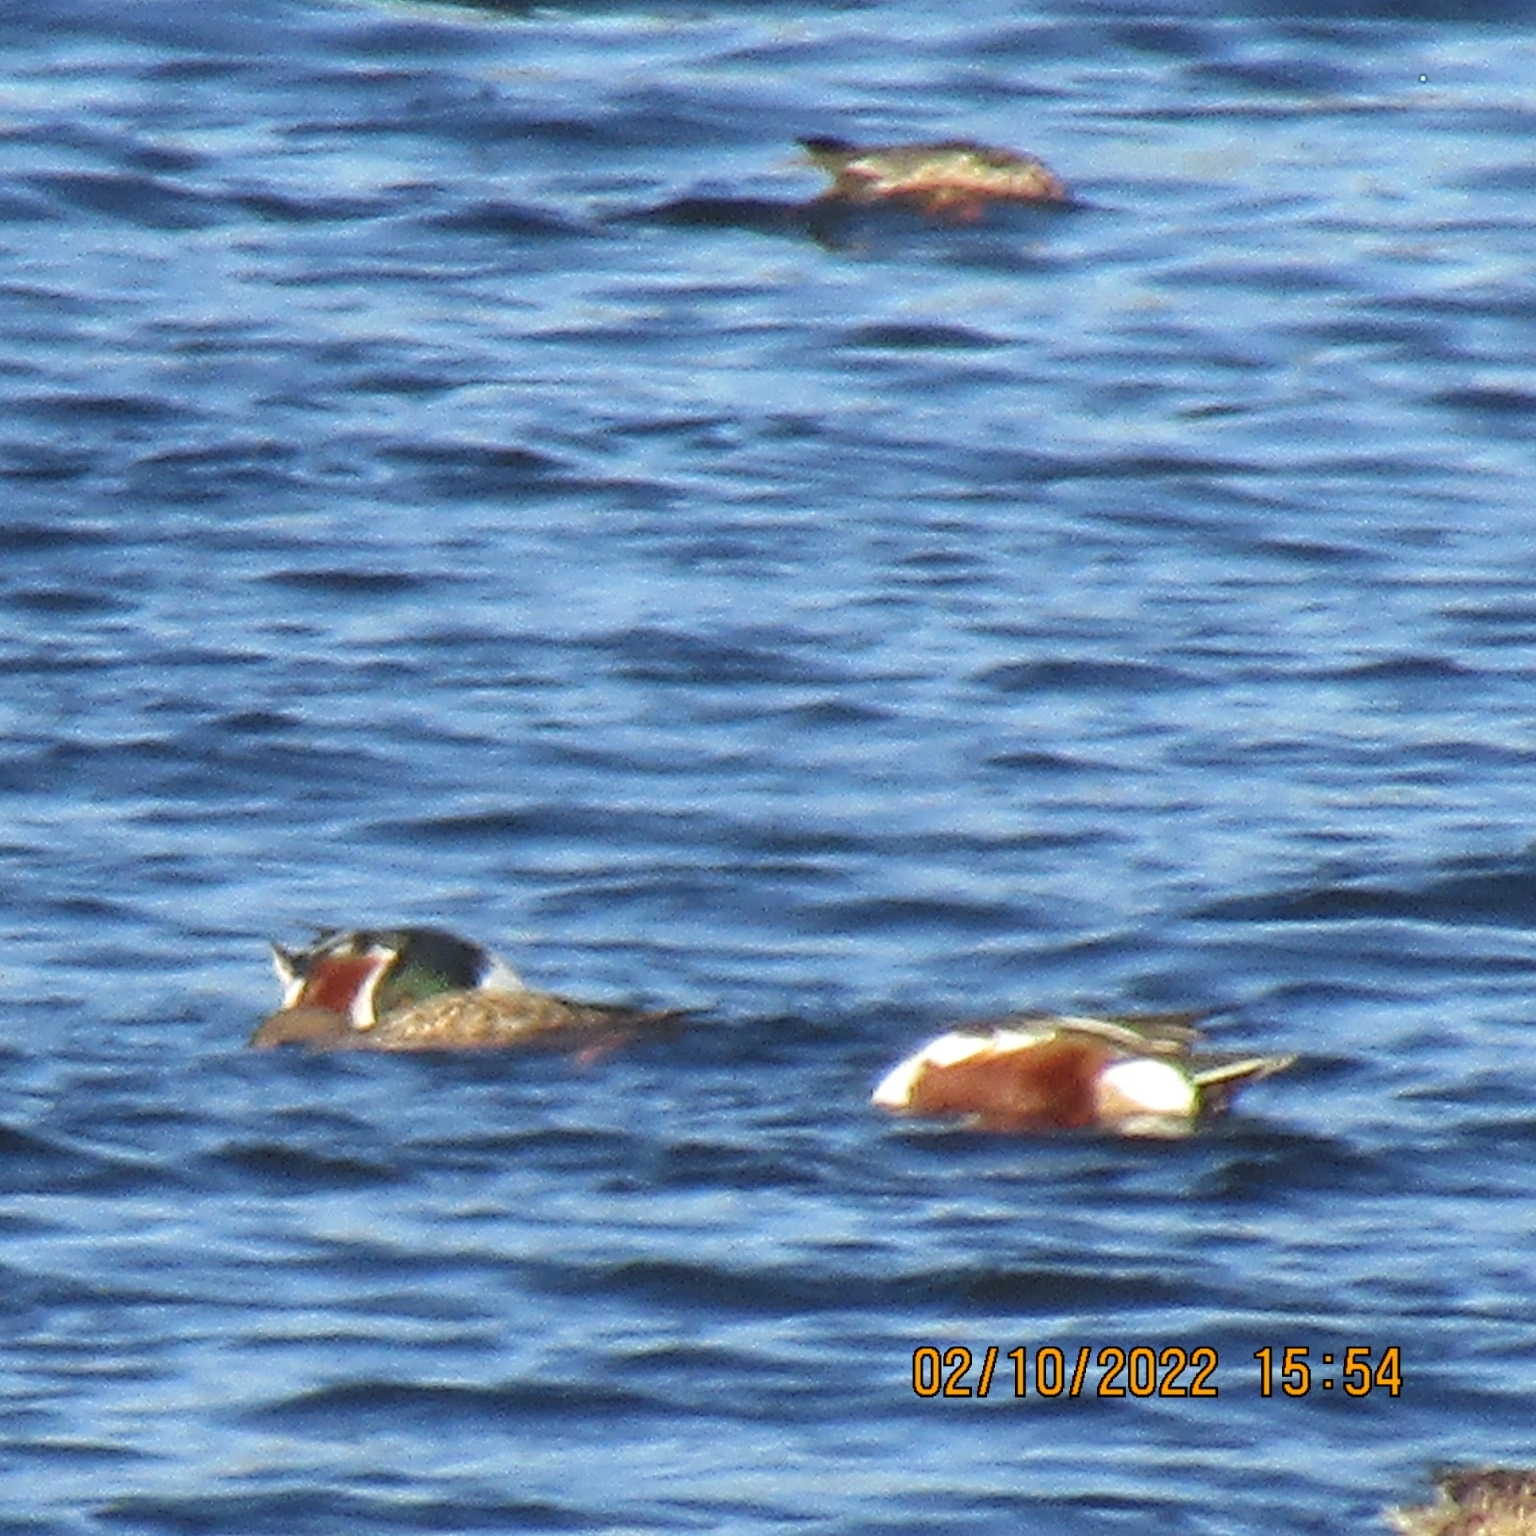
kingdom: Animalia
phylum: Chordata
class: Aves
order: Anseriformes
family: Anatidae
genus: Spatula
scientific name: Spatula clypeata
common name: Northern shoveler
